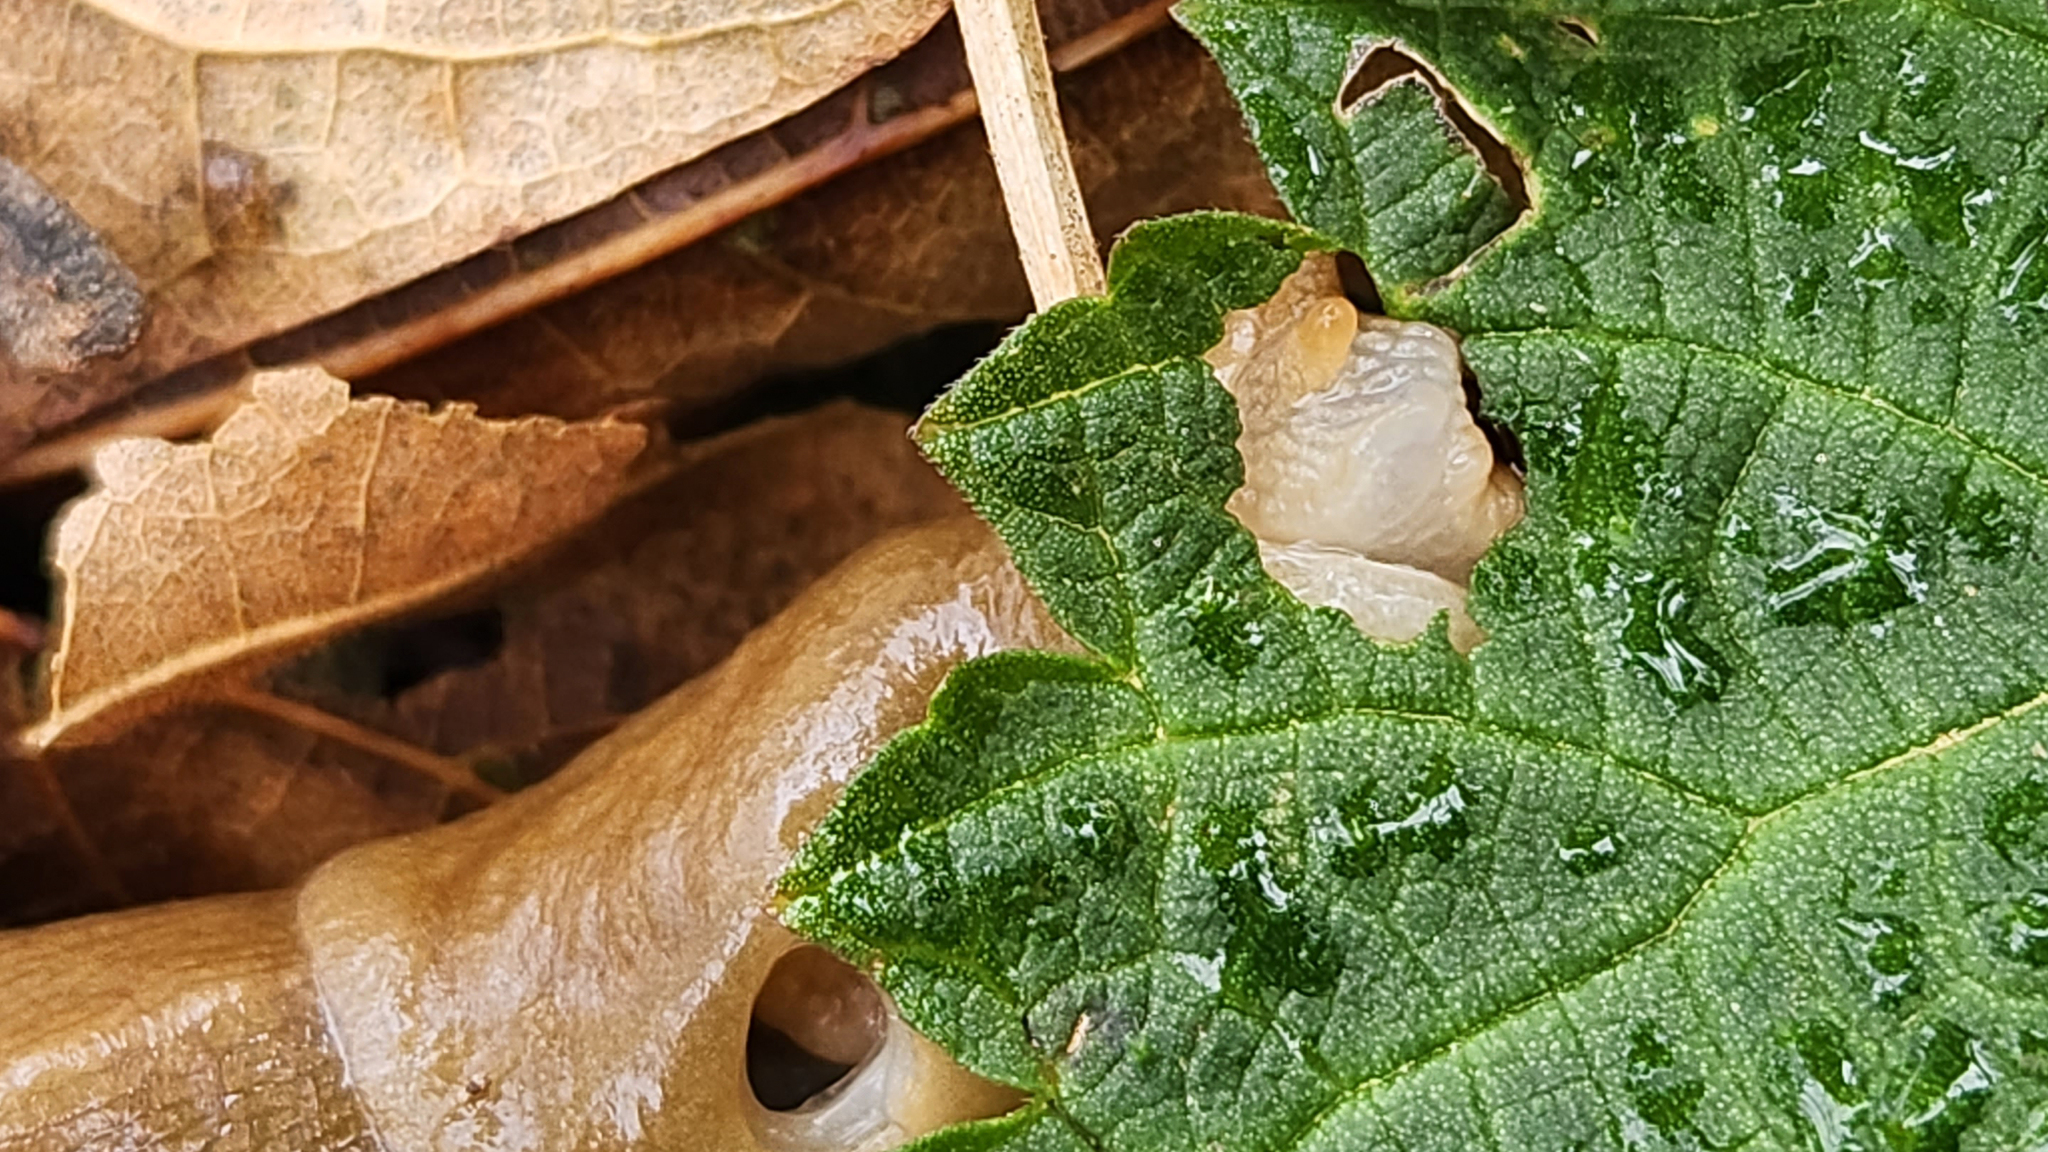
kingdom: Animalia
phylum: Mollusca
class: Gastropoda
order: Stylommatophora
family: Ariolimacidae
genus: Ariolimax
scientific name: Ariolimax columbianus
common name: Pacific banana slug
